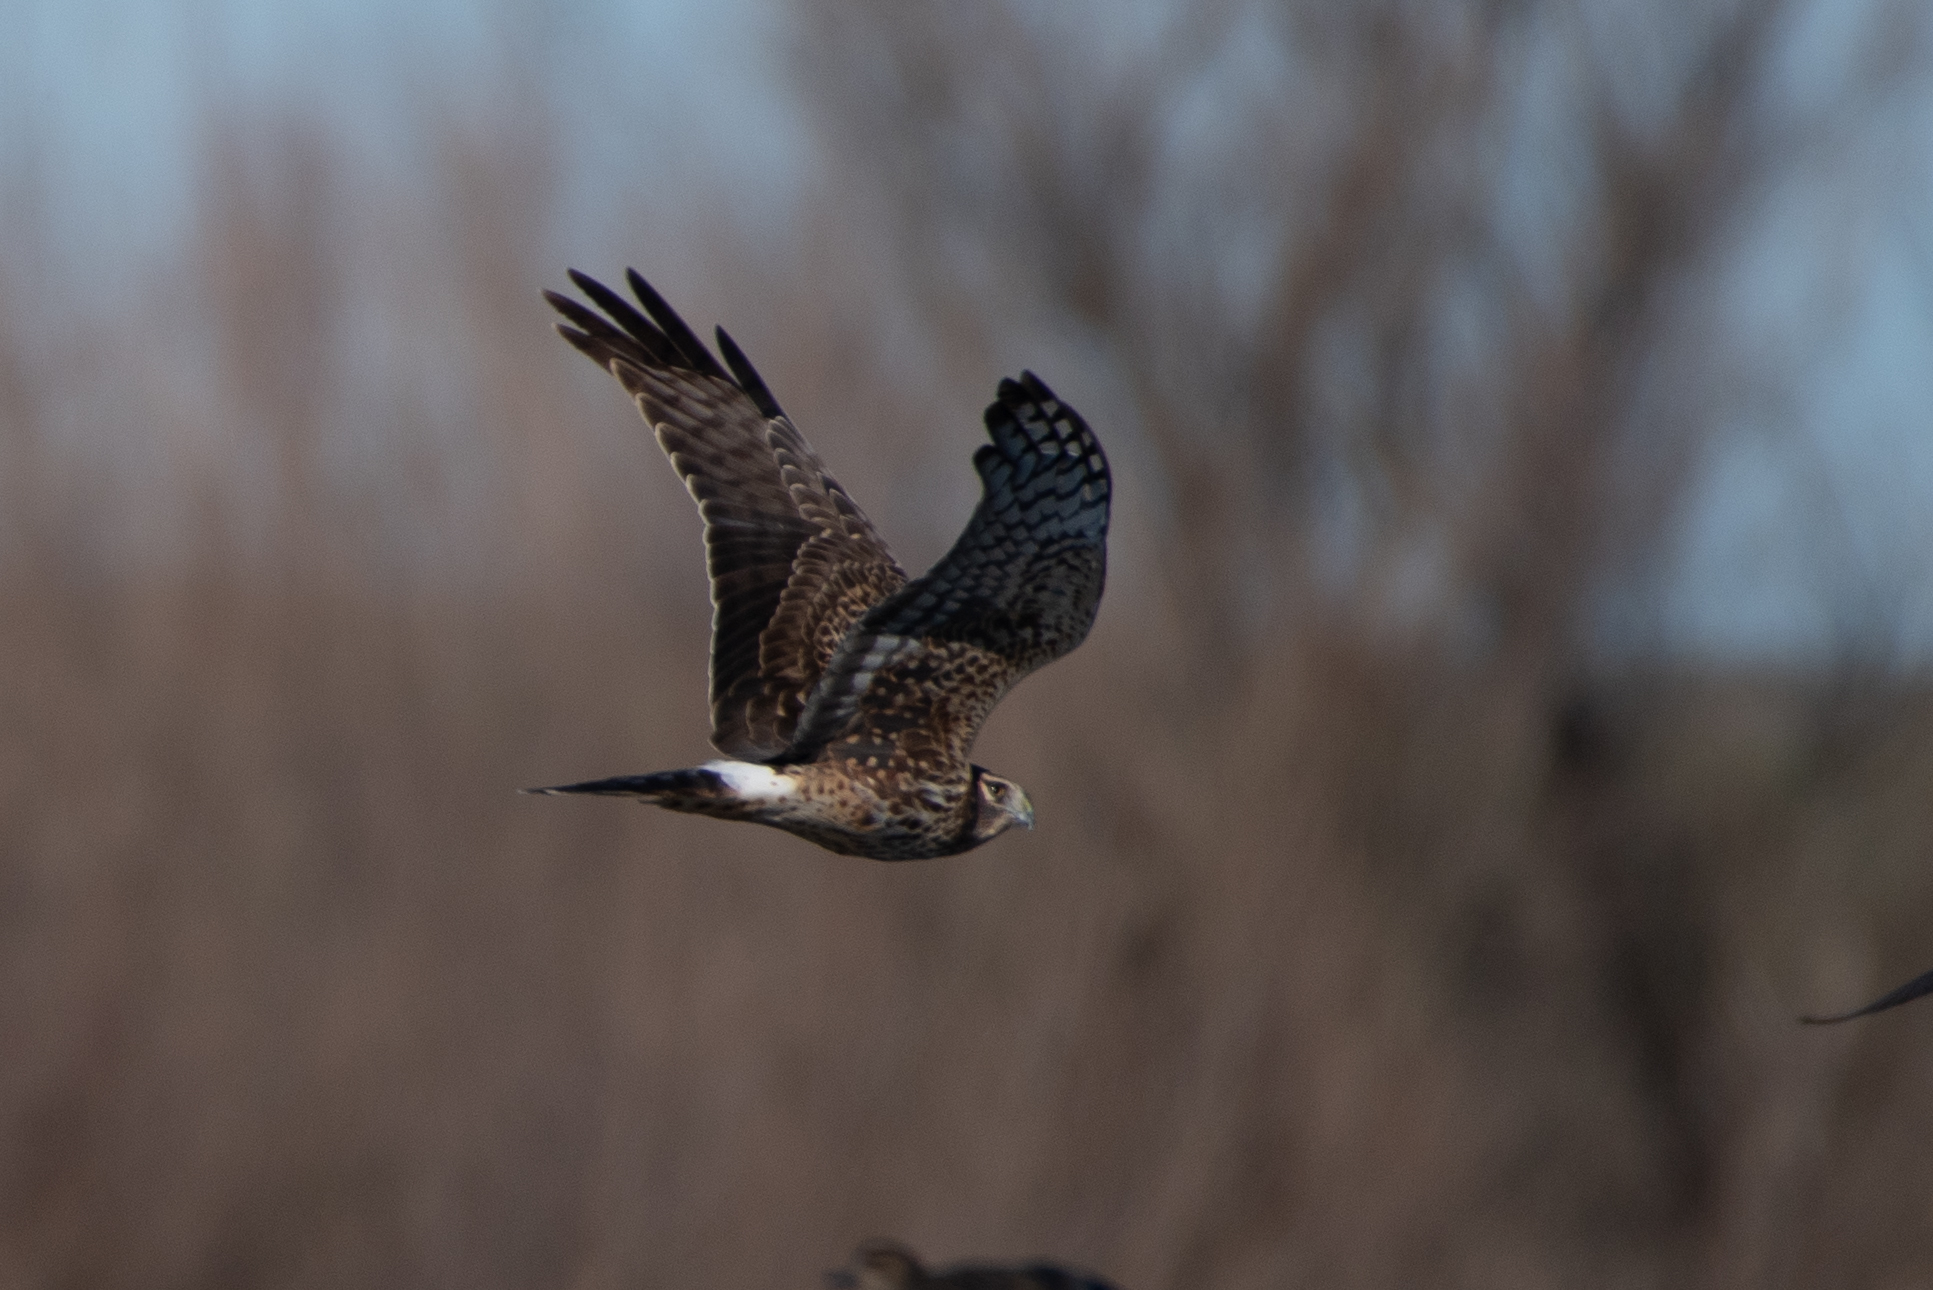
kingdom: Animalia
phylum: Chordata
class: Aves
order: Accipitriformes
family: Accipitridae
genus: Circus
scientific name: Circus cyaneus
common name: Hen harrier
